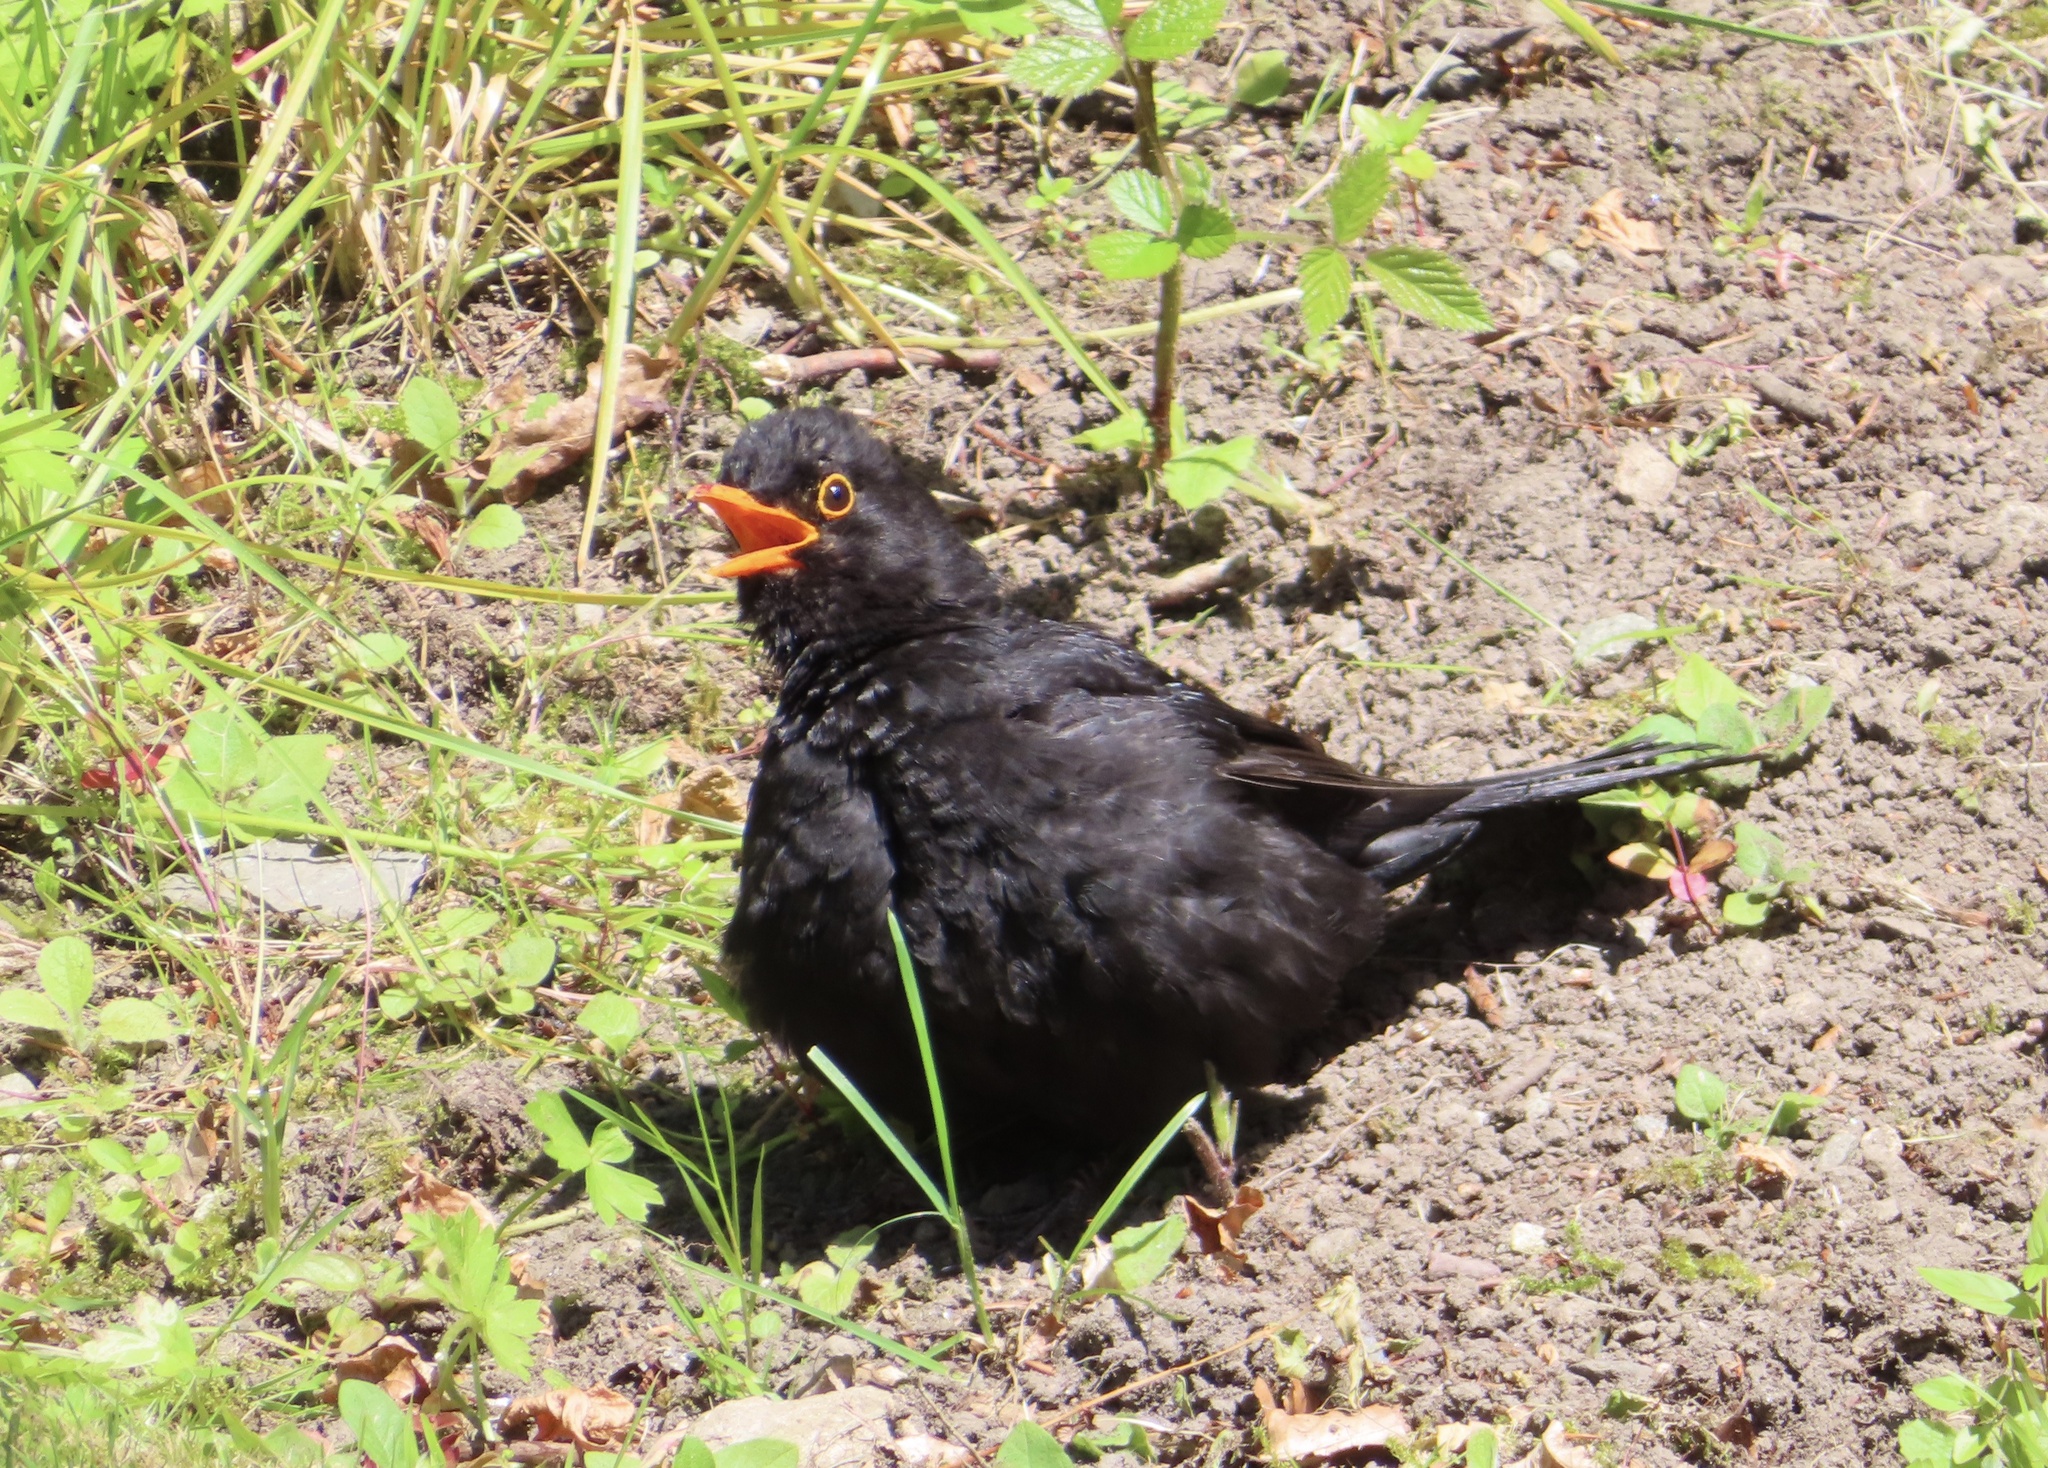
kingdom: Animalia
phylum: Chordata
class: Aves
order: Passeriformes
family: Turdidae
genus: Turdus
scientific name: Turdus merula
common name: Common blackbird
